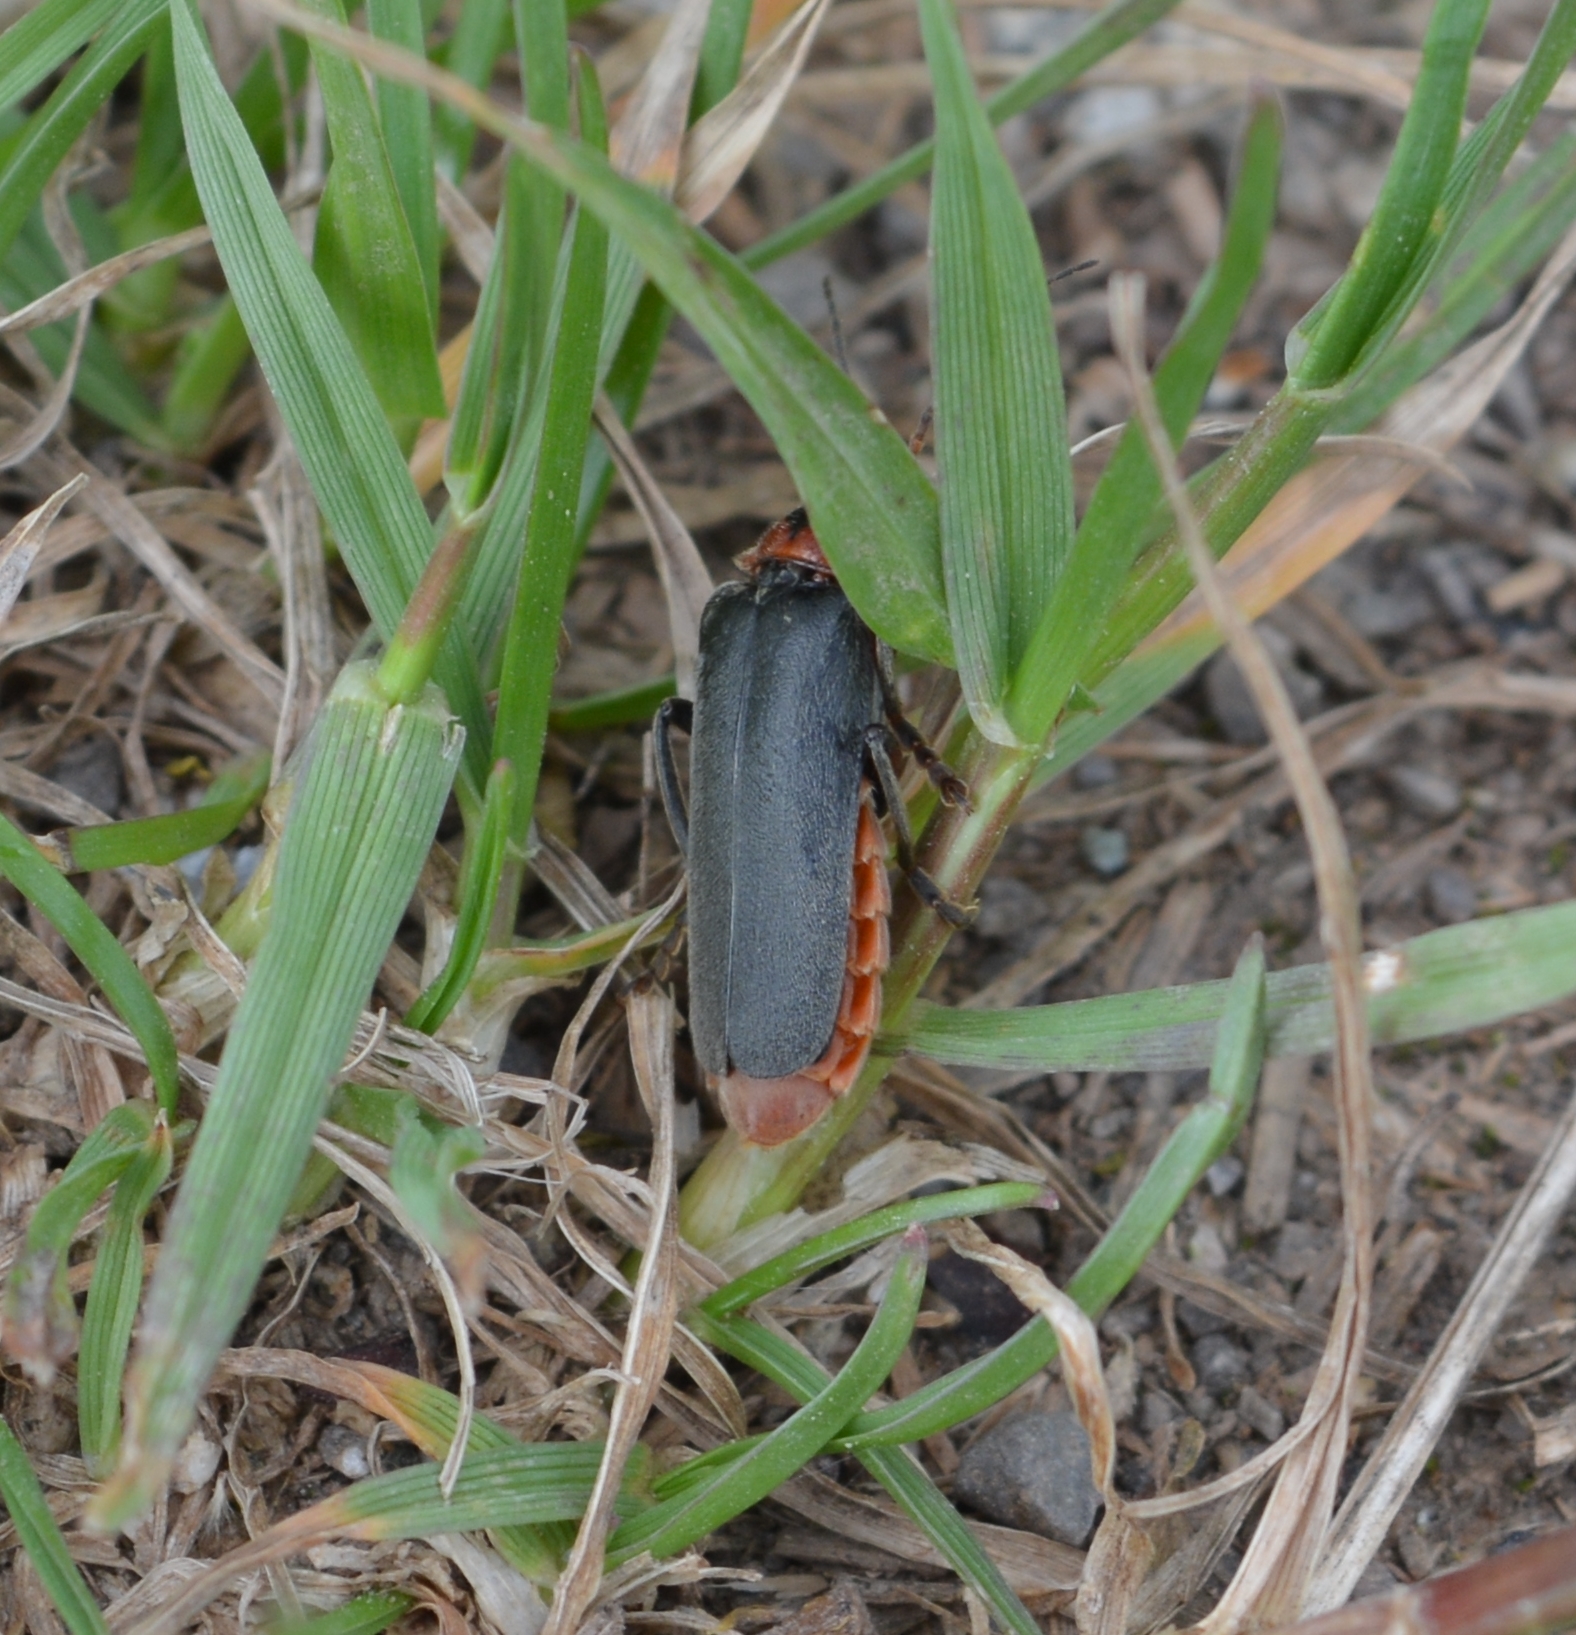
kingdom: Animalia
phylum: Arthropoda
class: Insecta
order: Coleoptera
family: Cantharidae
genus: Cantharis
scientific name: Cantharis rustica
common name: Soldier beetle
